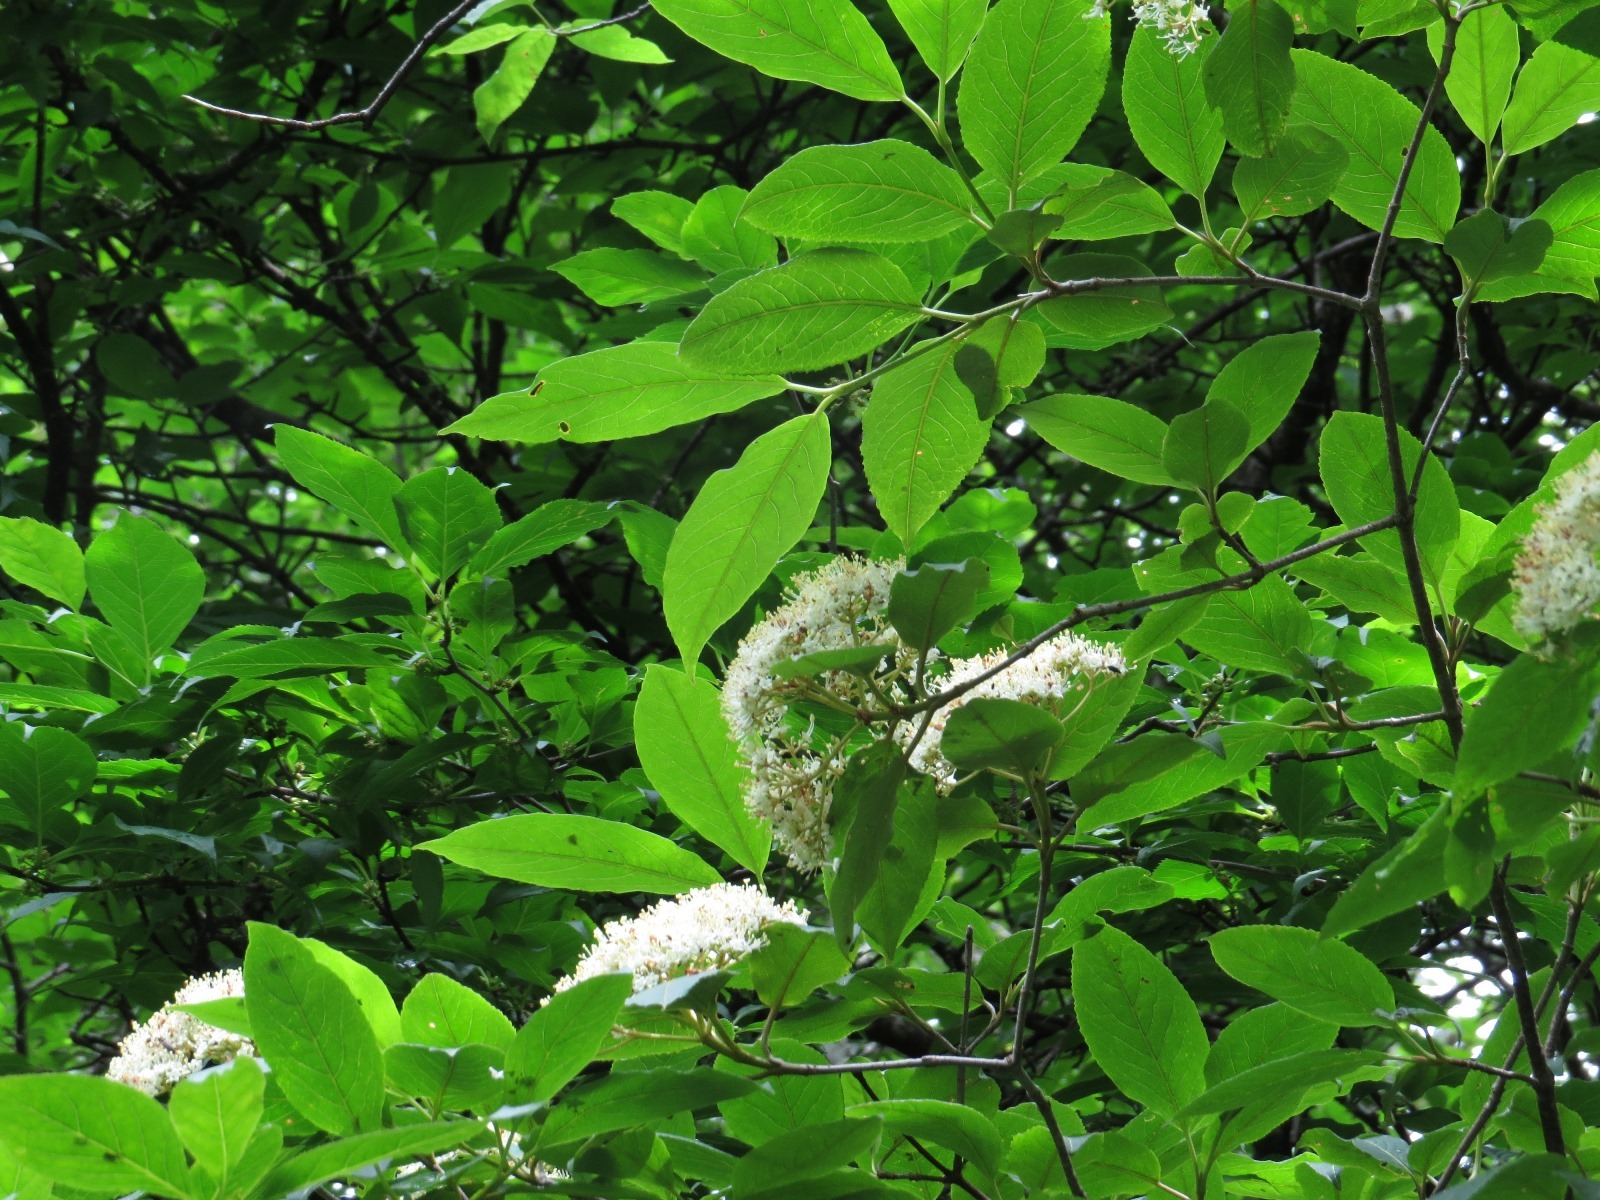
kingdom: Plantae
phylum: Tracheophyta
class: Magnoliopsida
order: Dipsacales
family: Viburnaceae
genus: Viburnum
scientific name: Viburnum cassinoides
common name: Swamp haw
